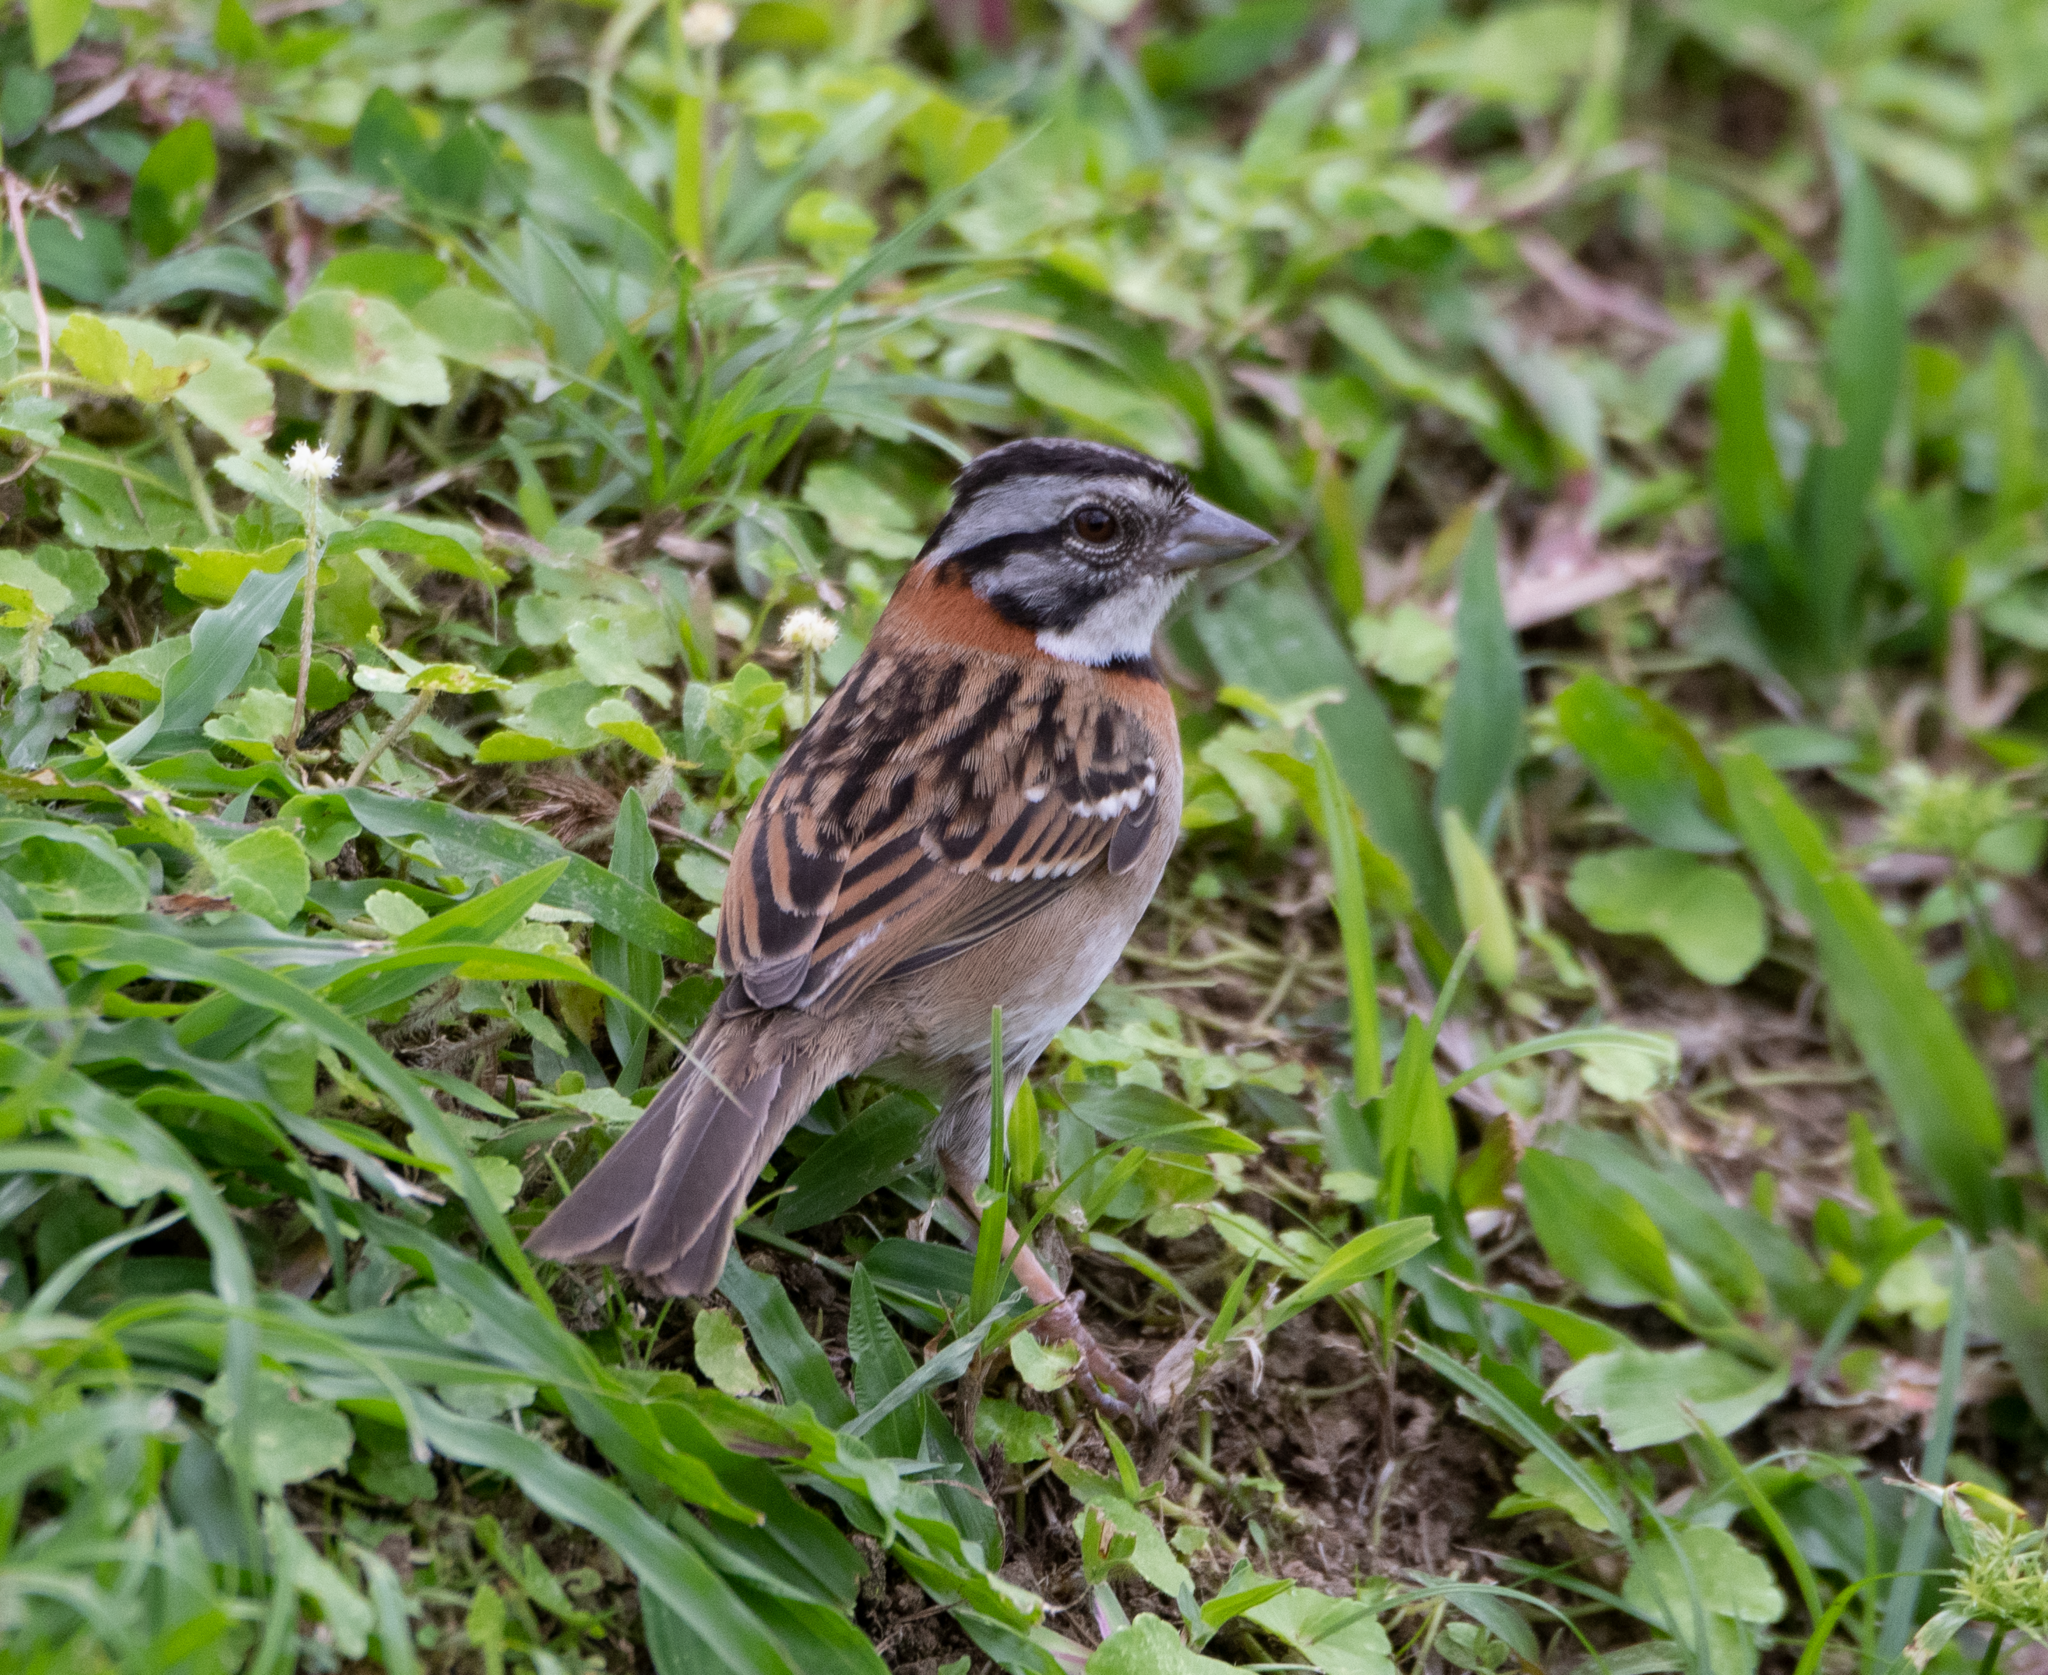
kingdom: Animalia
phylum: Chordata
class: Aves
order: Passeriformes
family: Passerellidae
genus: Zonotrichia
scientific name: Zonotrichia capensis
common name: Rufous-collared sparrow
